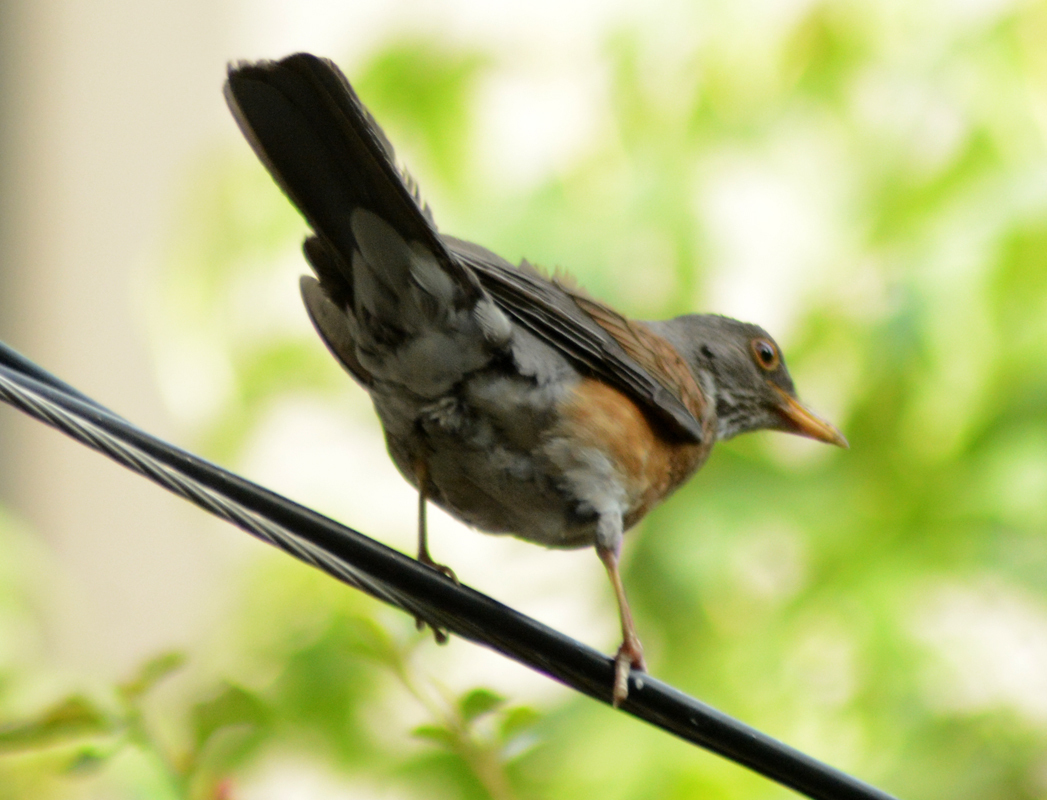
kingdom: Animalia
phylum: Chordata
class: Aves
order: Passeriformes
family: Turdidae
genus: Turdus
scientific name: Turdus rufopalliatus
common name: Rufous-backed robin
